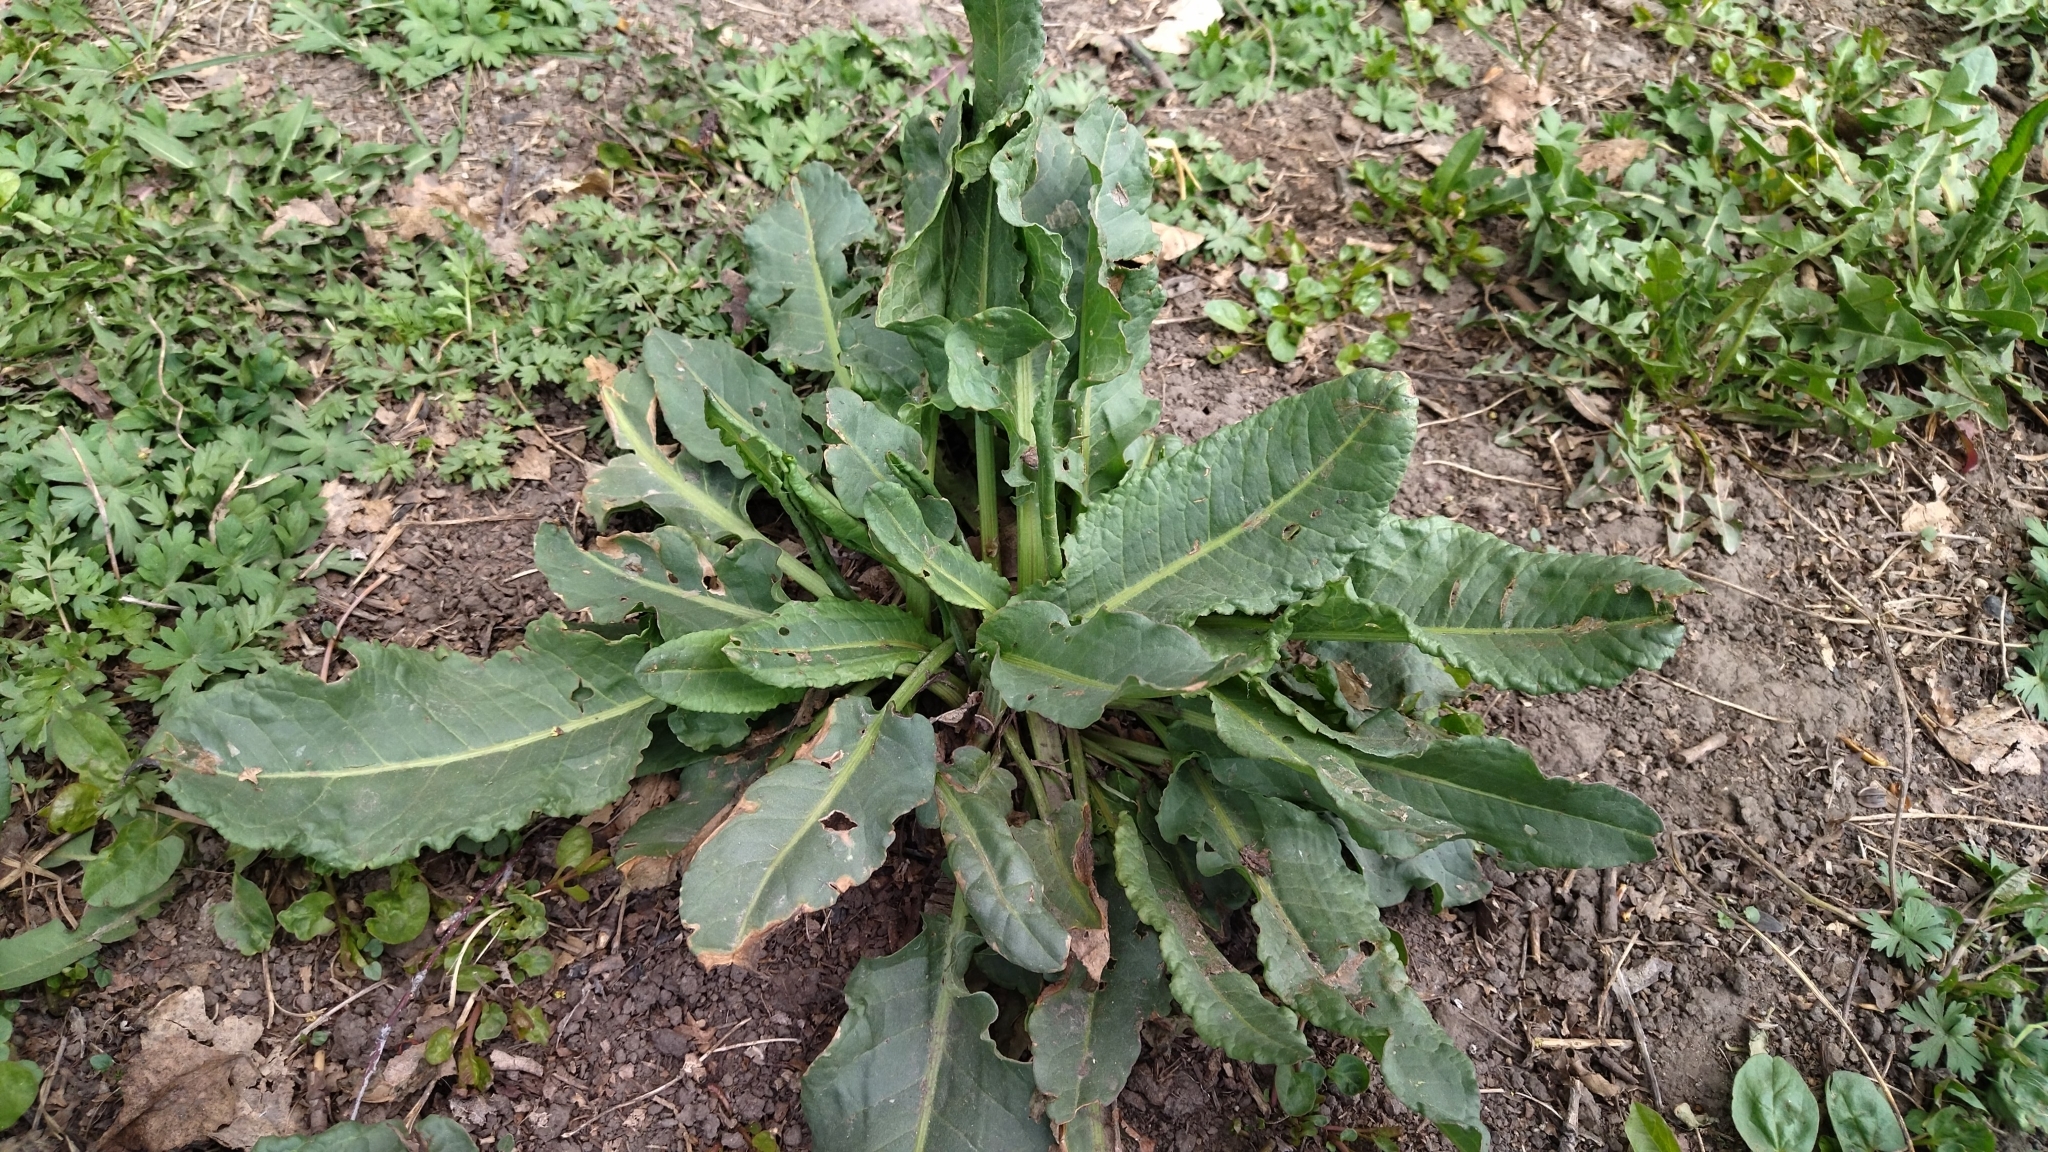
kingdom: Plantae
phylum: Tracheophyta
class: Magnoliopsida
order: Caryophyllales
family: Polygonaceae
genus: Rumex
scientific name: Rumex obtusifolius
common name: Bitter dock
